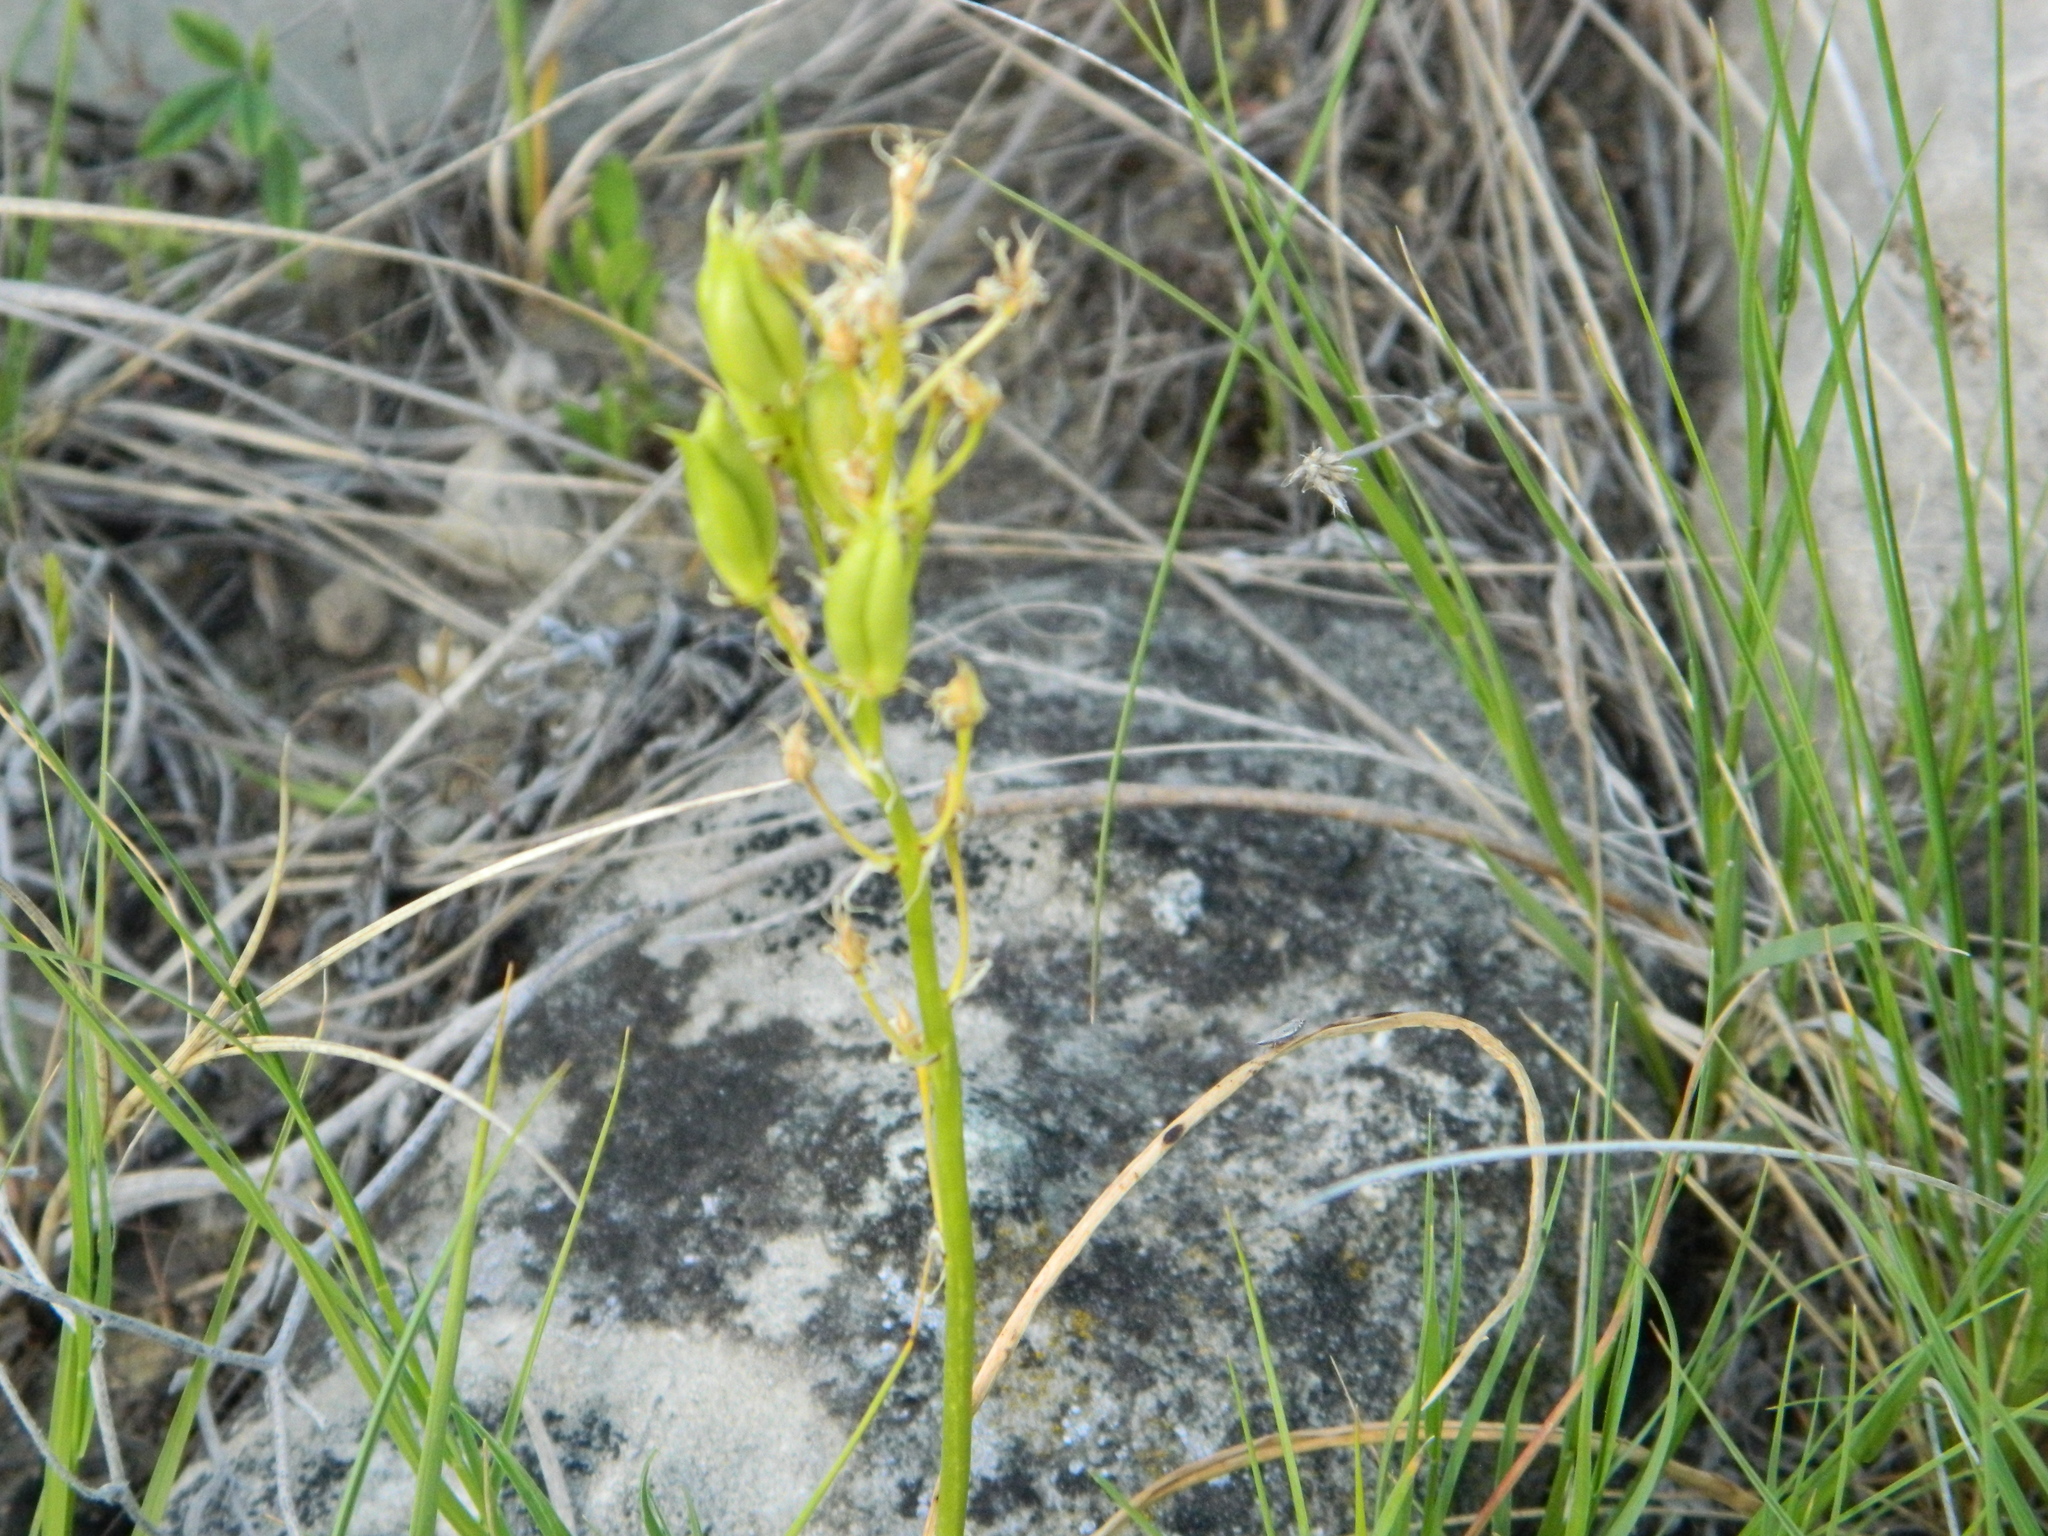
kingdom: Plantae
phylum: Tracheophyta
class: Liliopsida
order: Liliales
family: Melanthiaceae
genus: Toxicoscordion
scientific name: Toxicoscordion venenosum
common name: Meadow death camas
